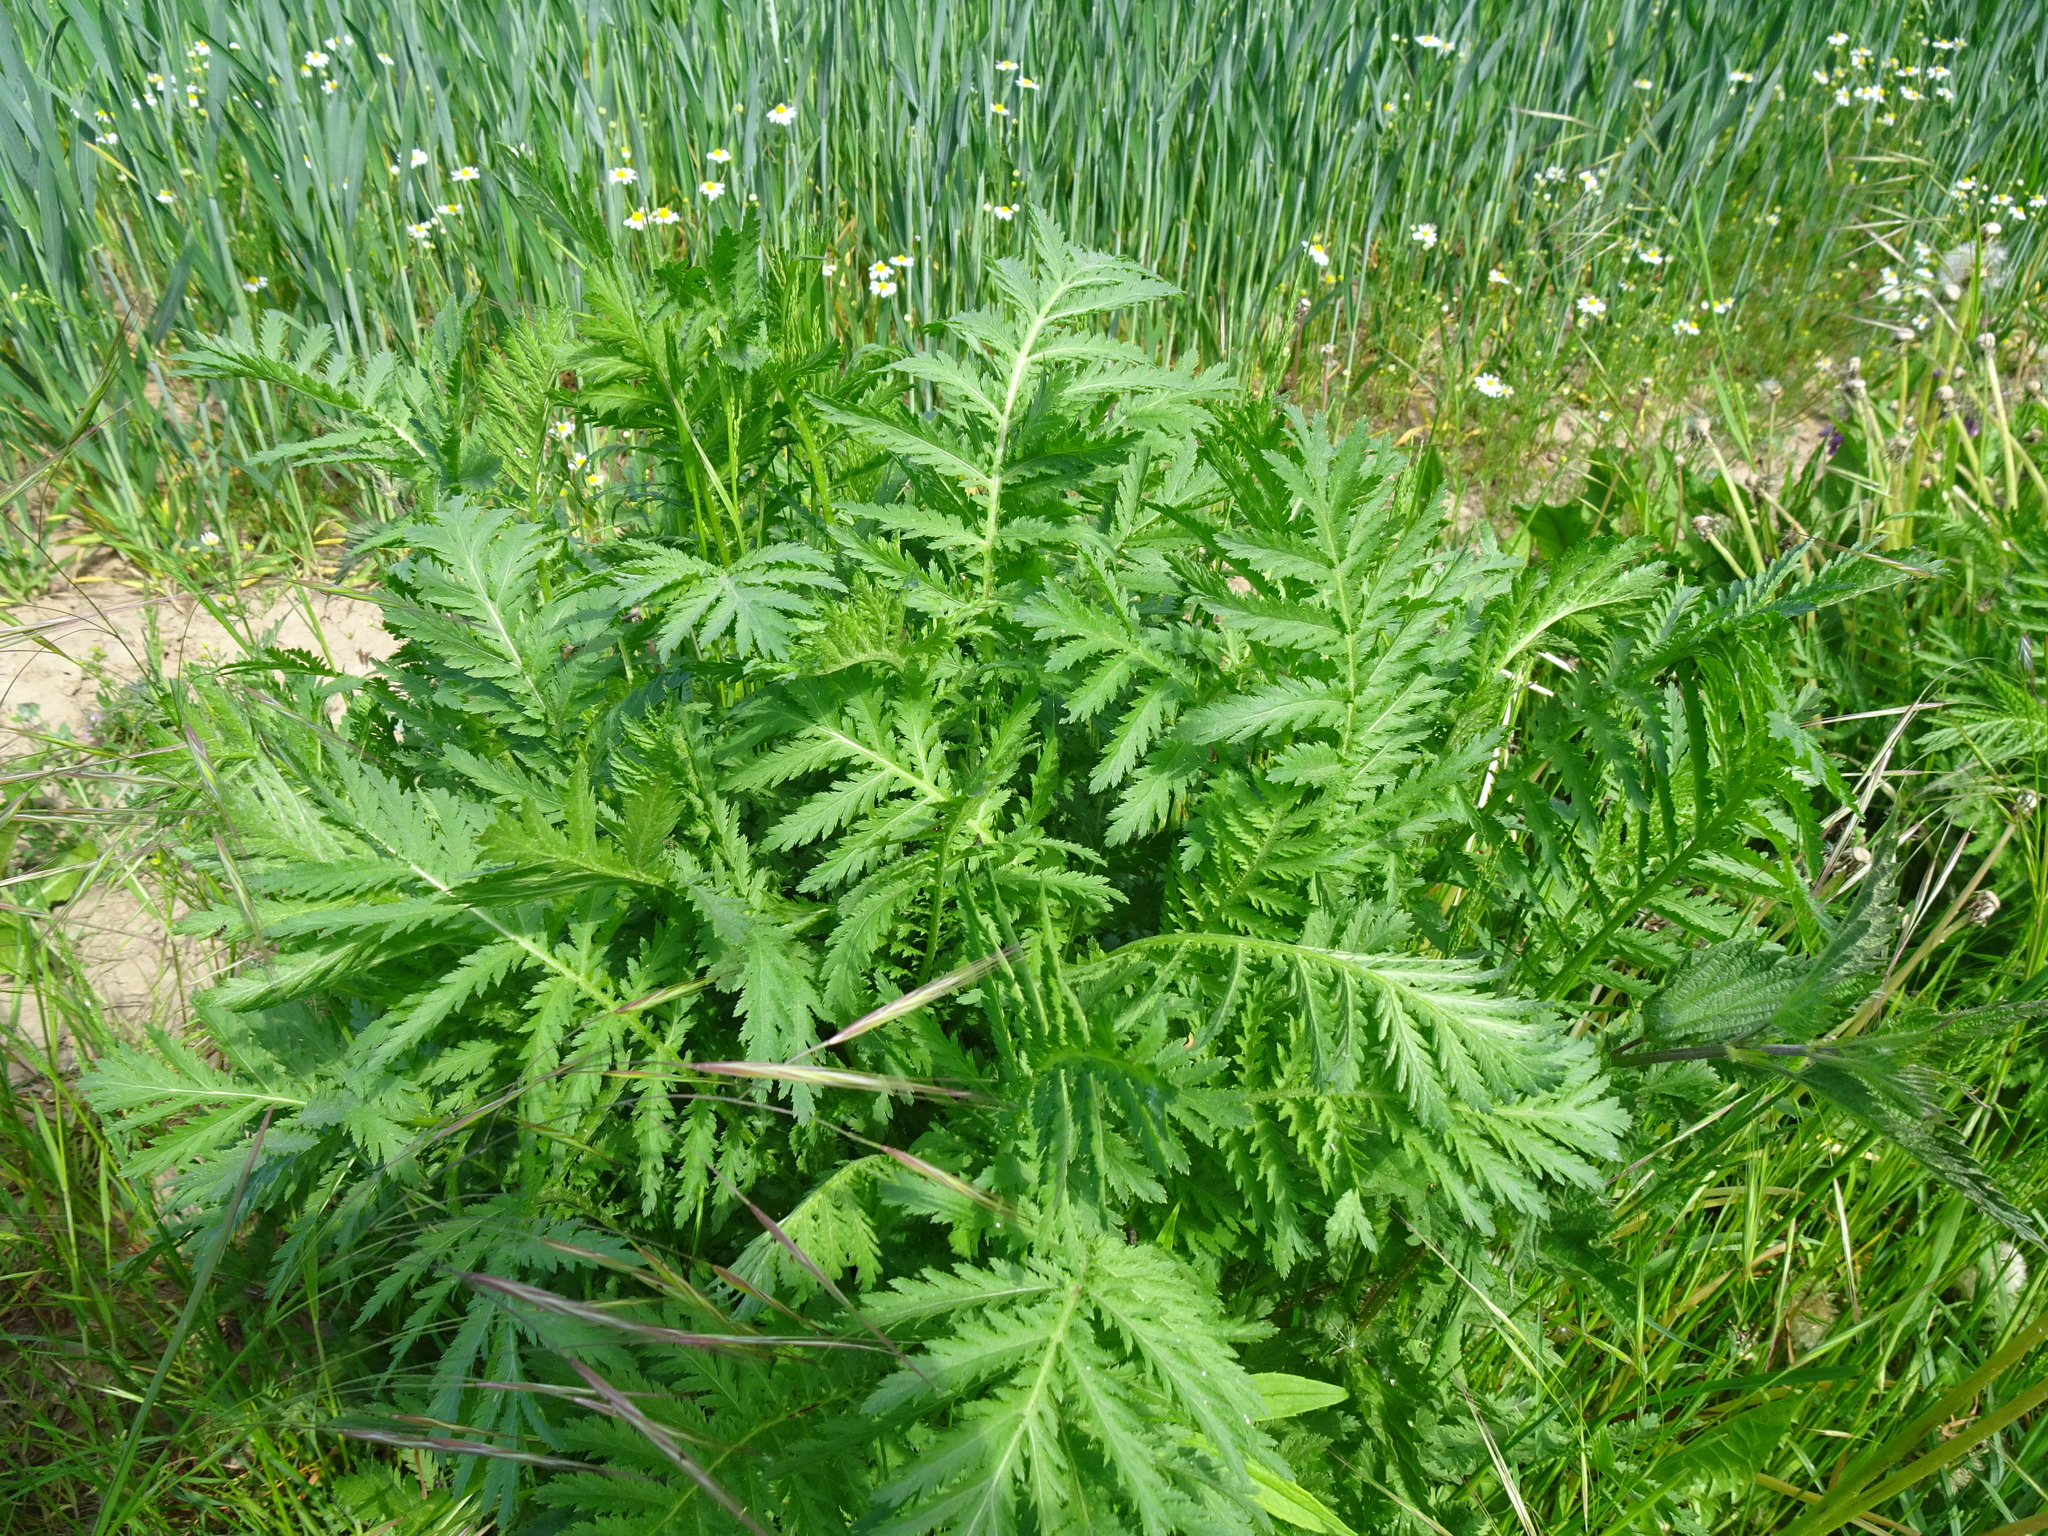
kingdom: Plantae
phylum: Tracheophyta
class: Magnoliopsida
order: Asterales
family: Asteraceae
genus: Tanacetum
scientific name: Tanacetum vulgare
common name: Common tansy
